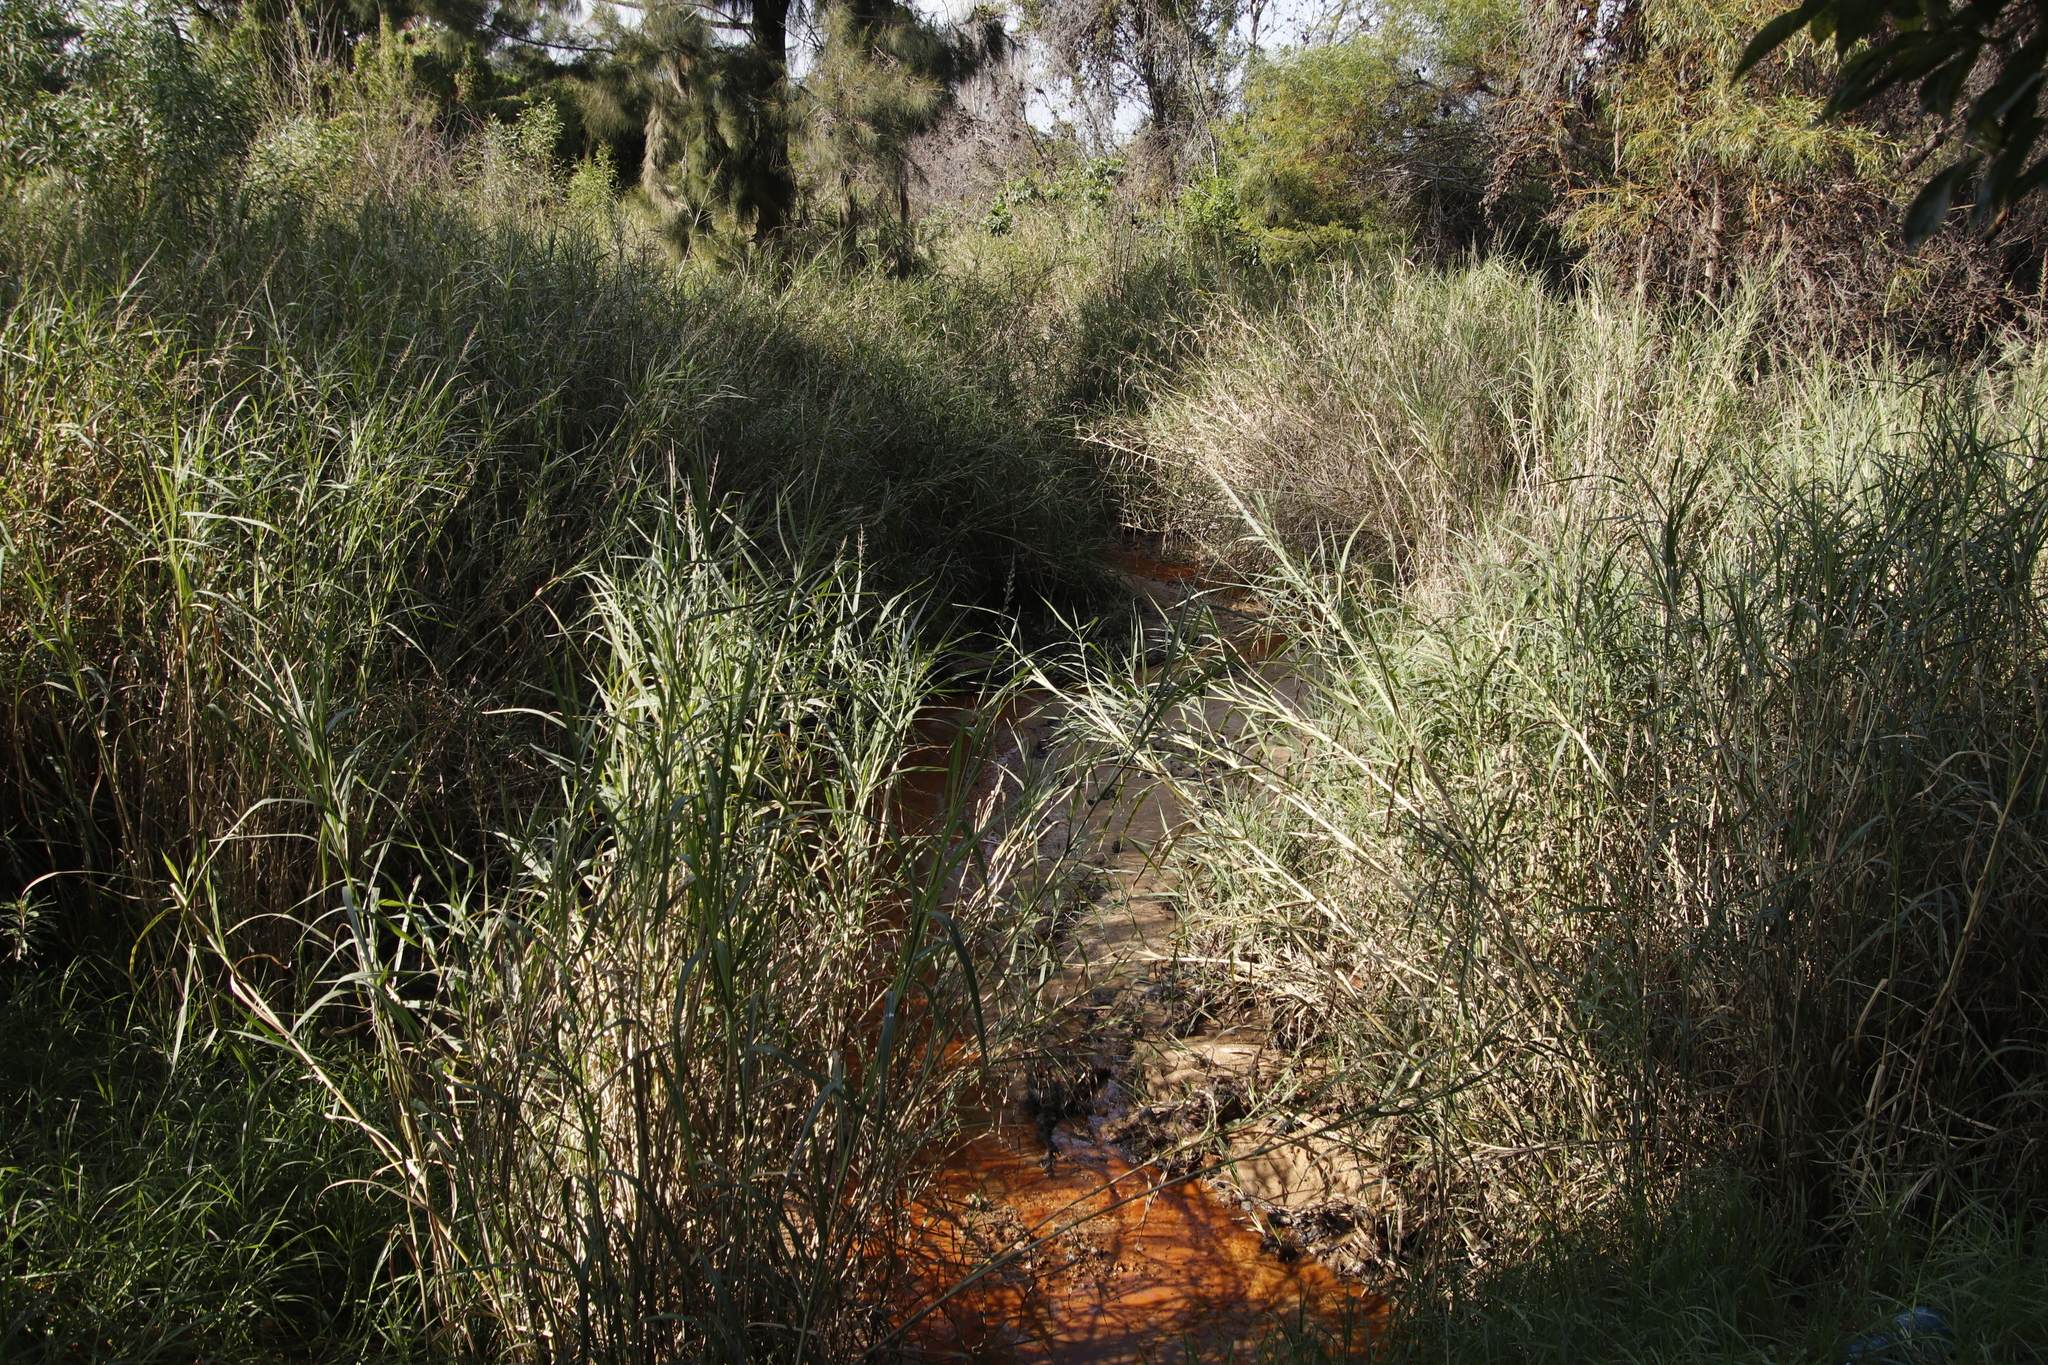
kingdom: Plantae
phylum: Tracheophyta
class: Liliopsida
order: Poales
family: Poaceae
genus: Echinochloa
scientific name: Echinochloa pyramidalis
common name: Antelope grass
